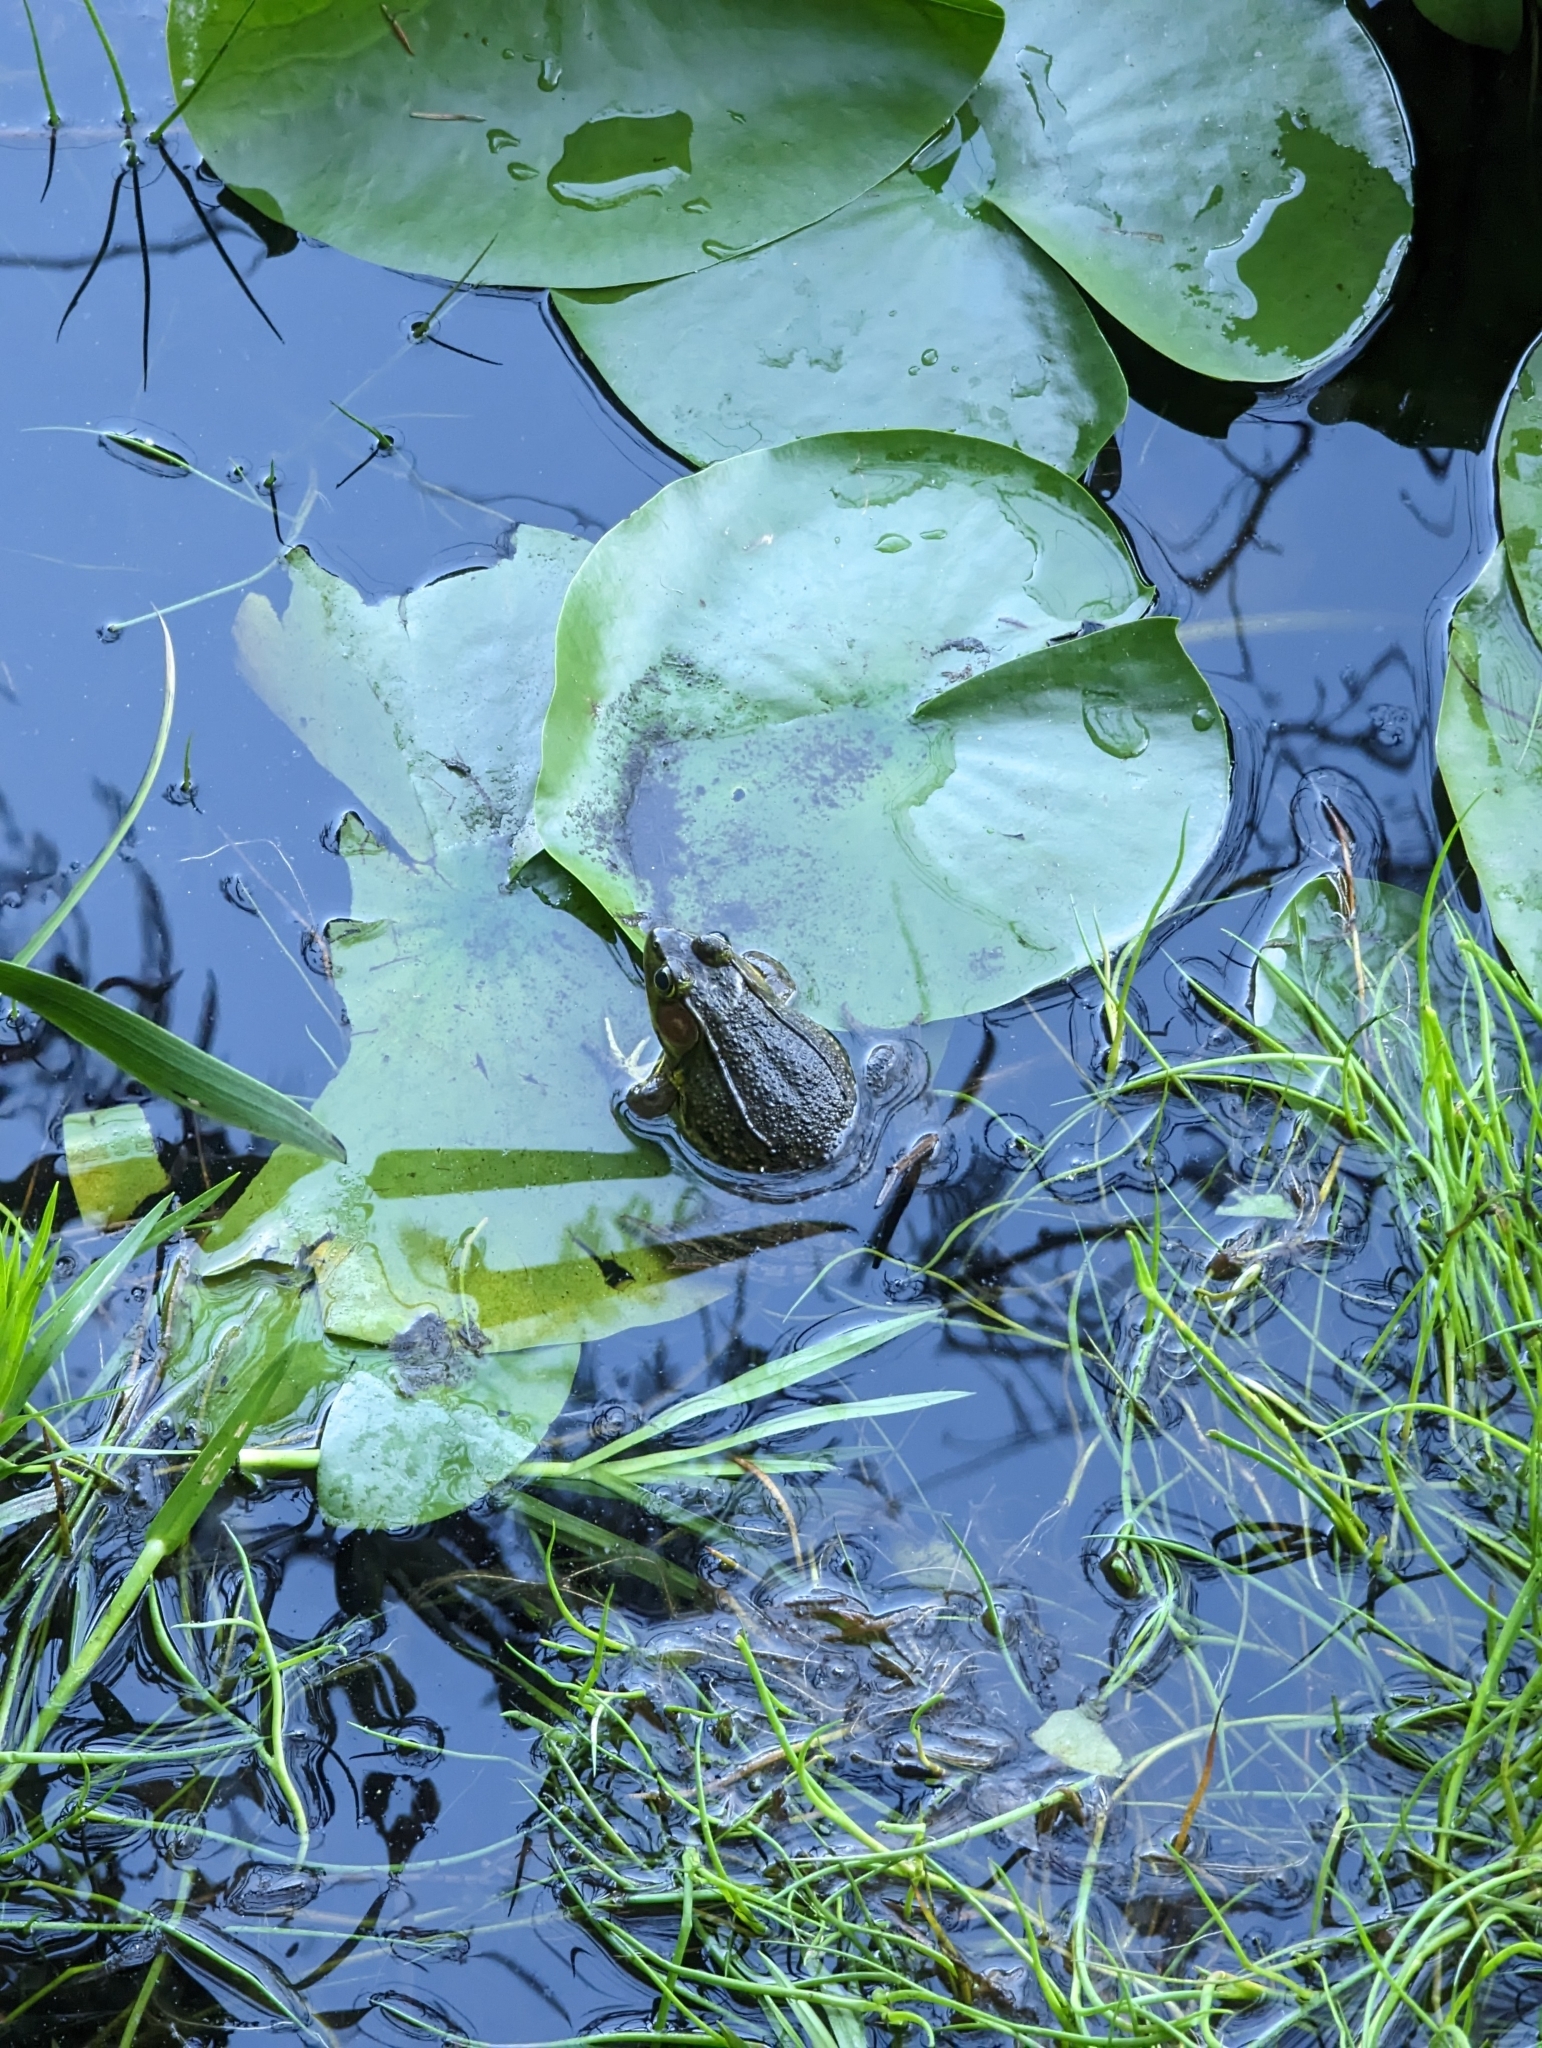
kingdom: Animalia
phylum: Chordata
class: Amphibia
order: Anura
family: Ranidae
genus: Lithobates
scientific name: Lithobates clamitans
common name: Green frog
